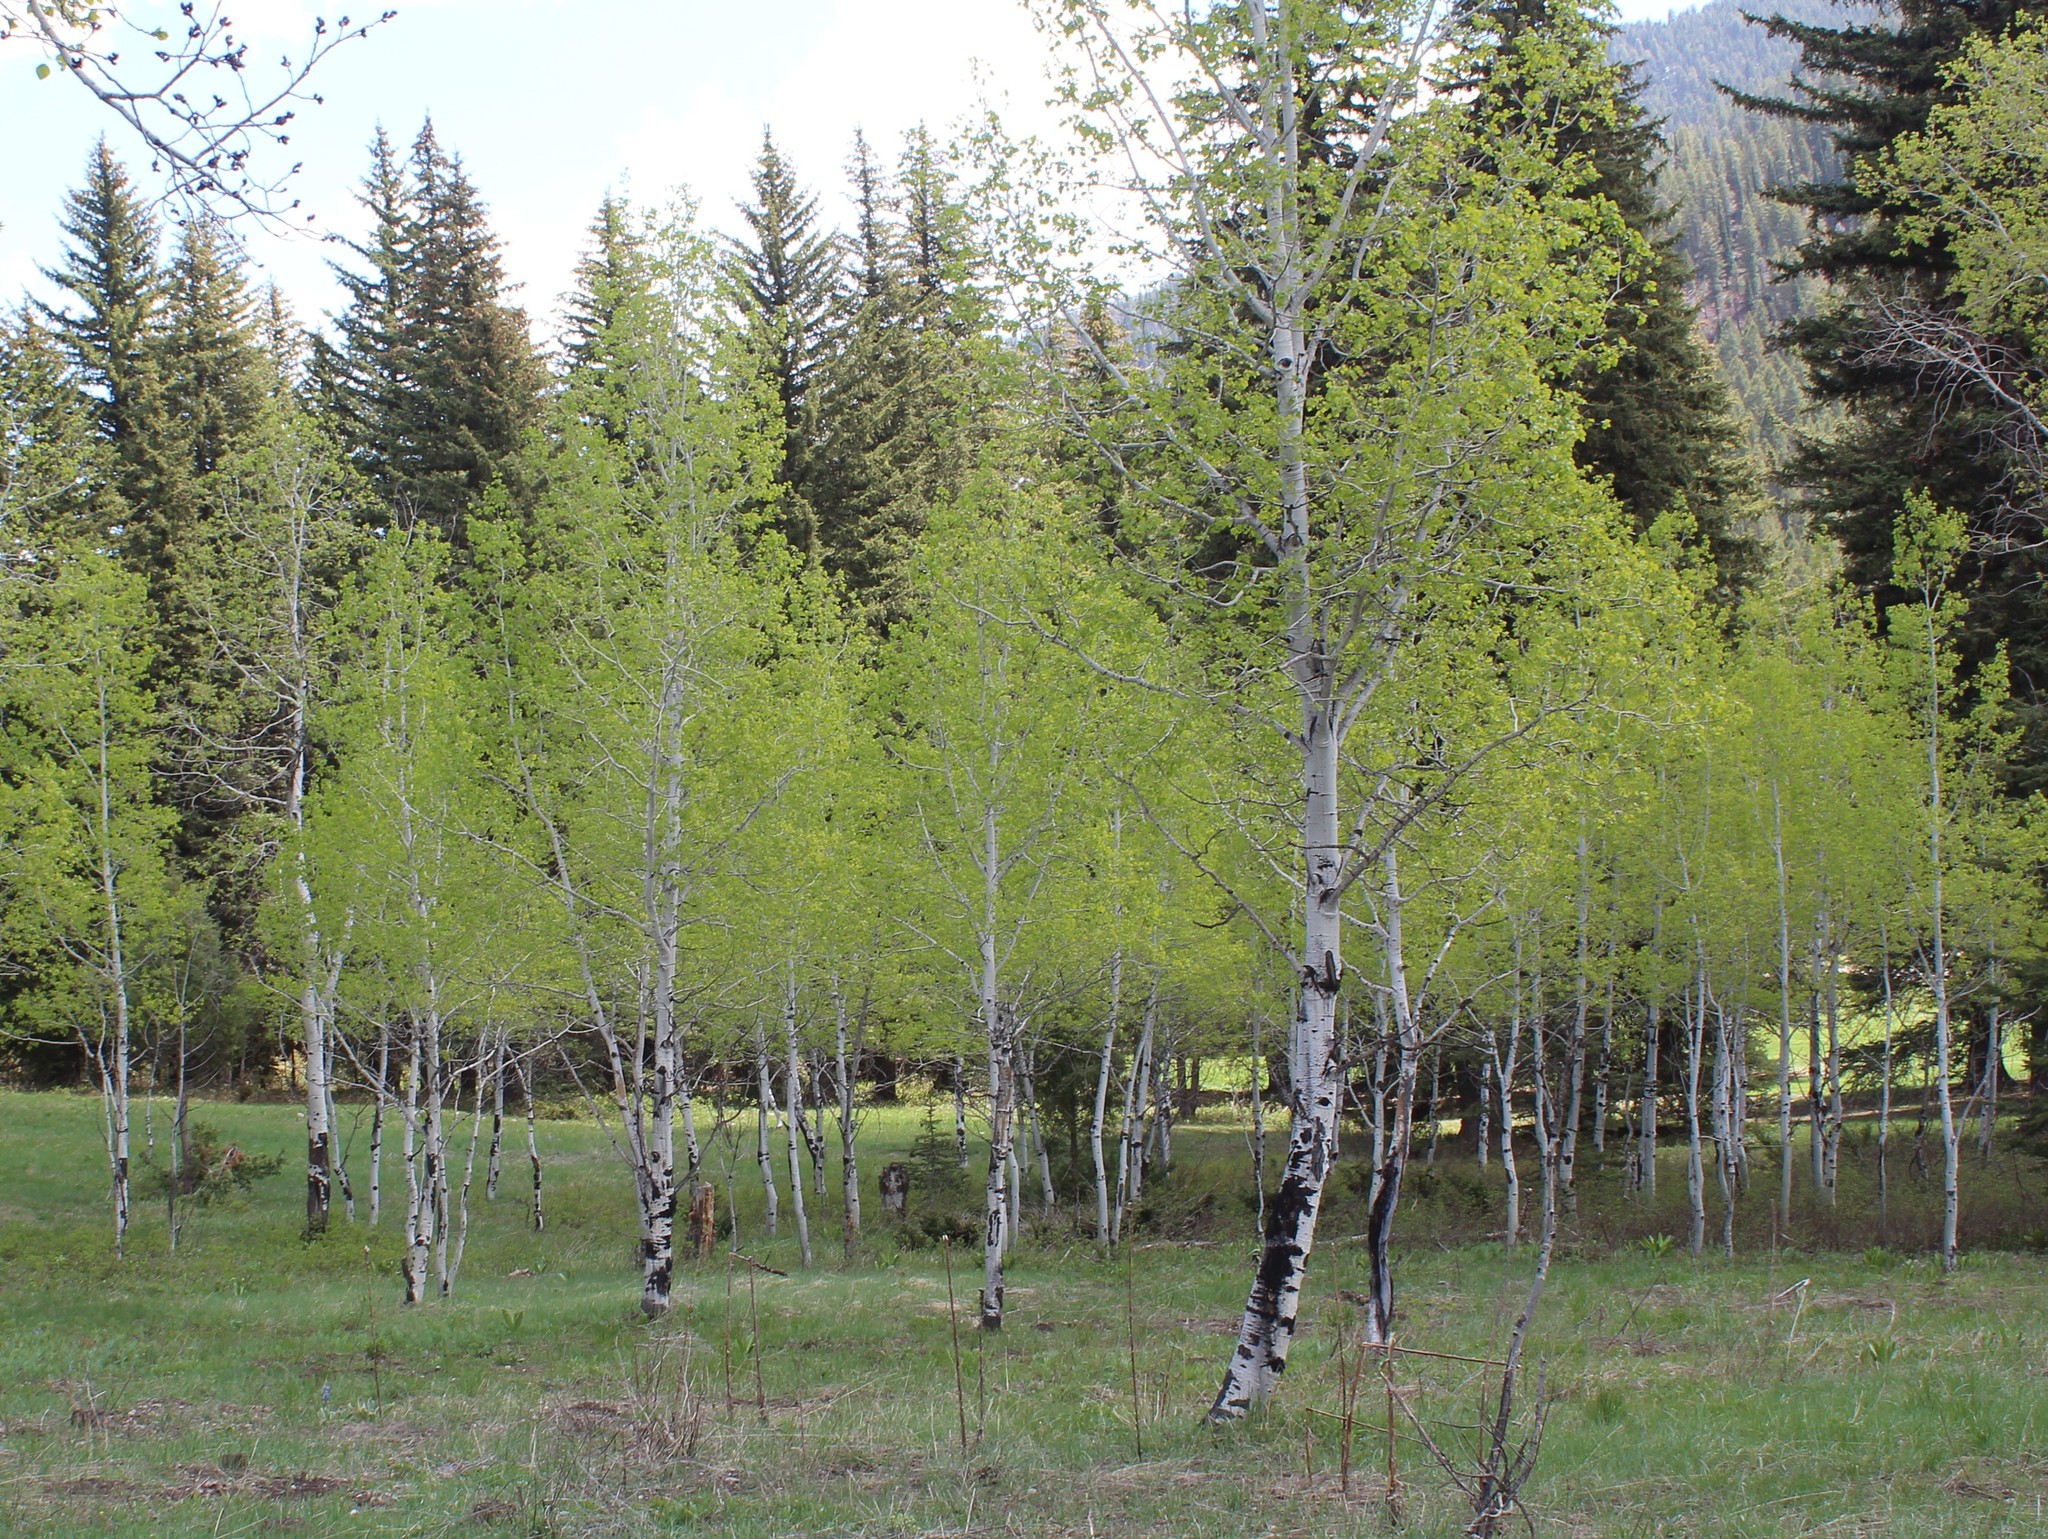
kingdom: Plantae
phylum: Tracheophyta
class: Magnoliopsida
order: Malpighiales
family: Salicaceae
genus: Populus
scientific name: Populus tremuloides
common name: Quaking aspen
